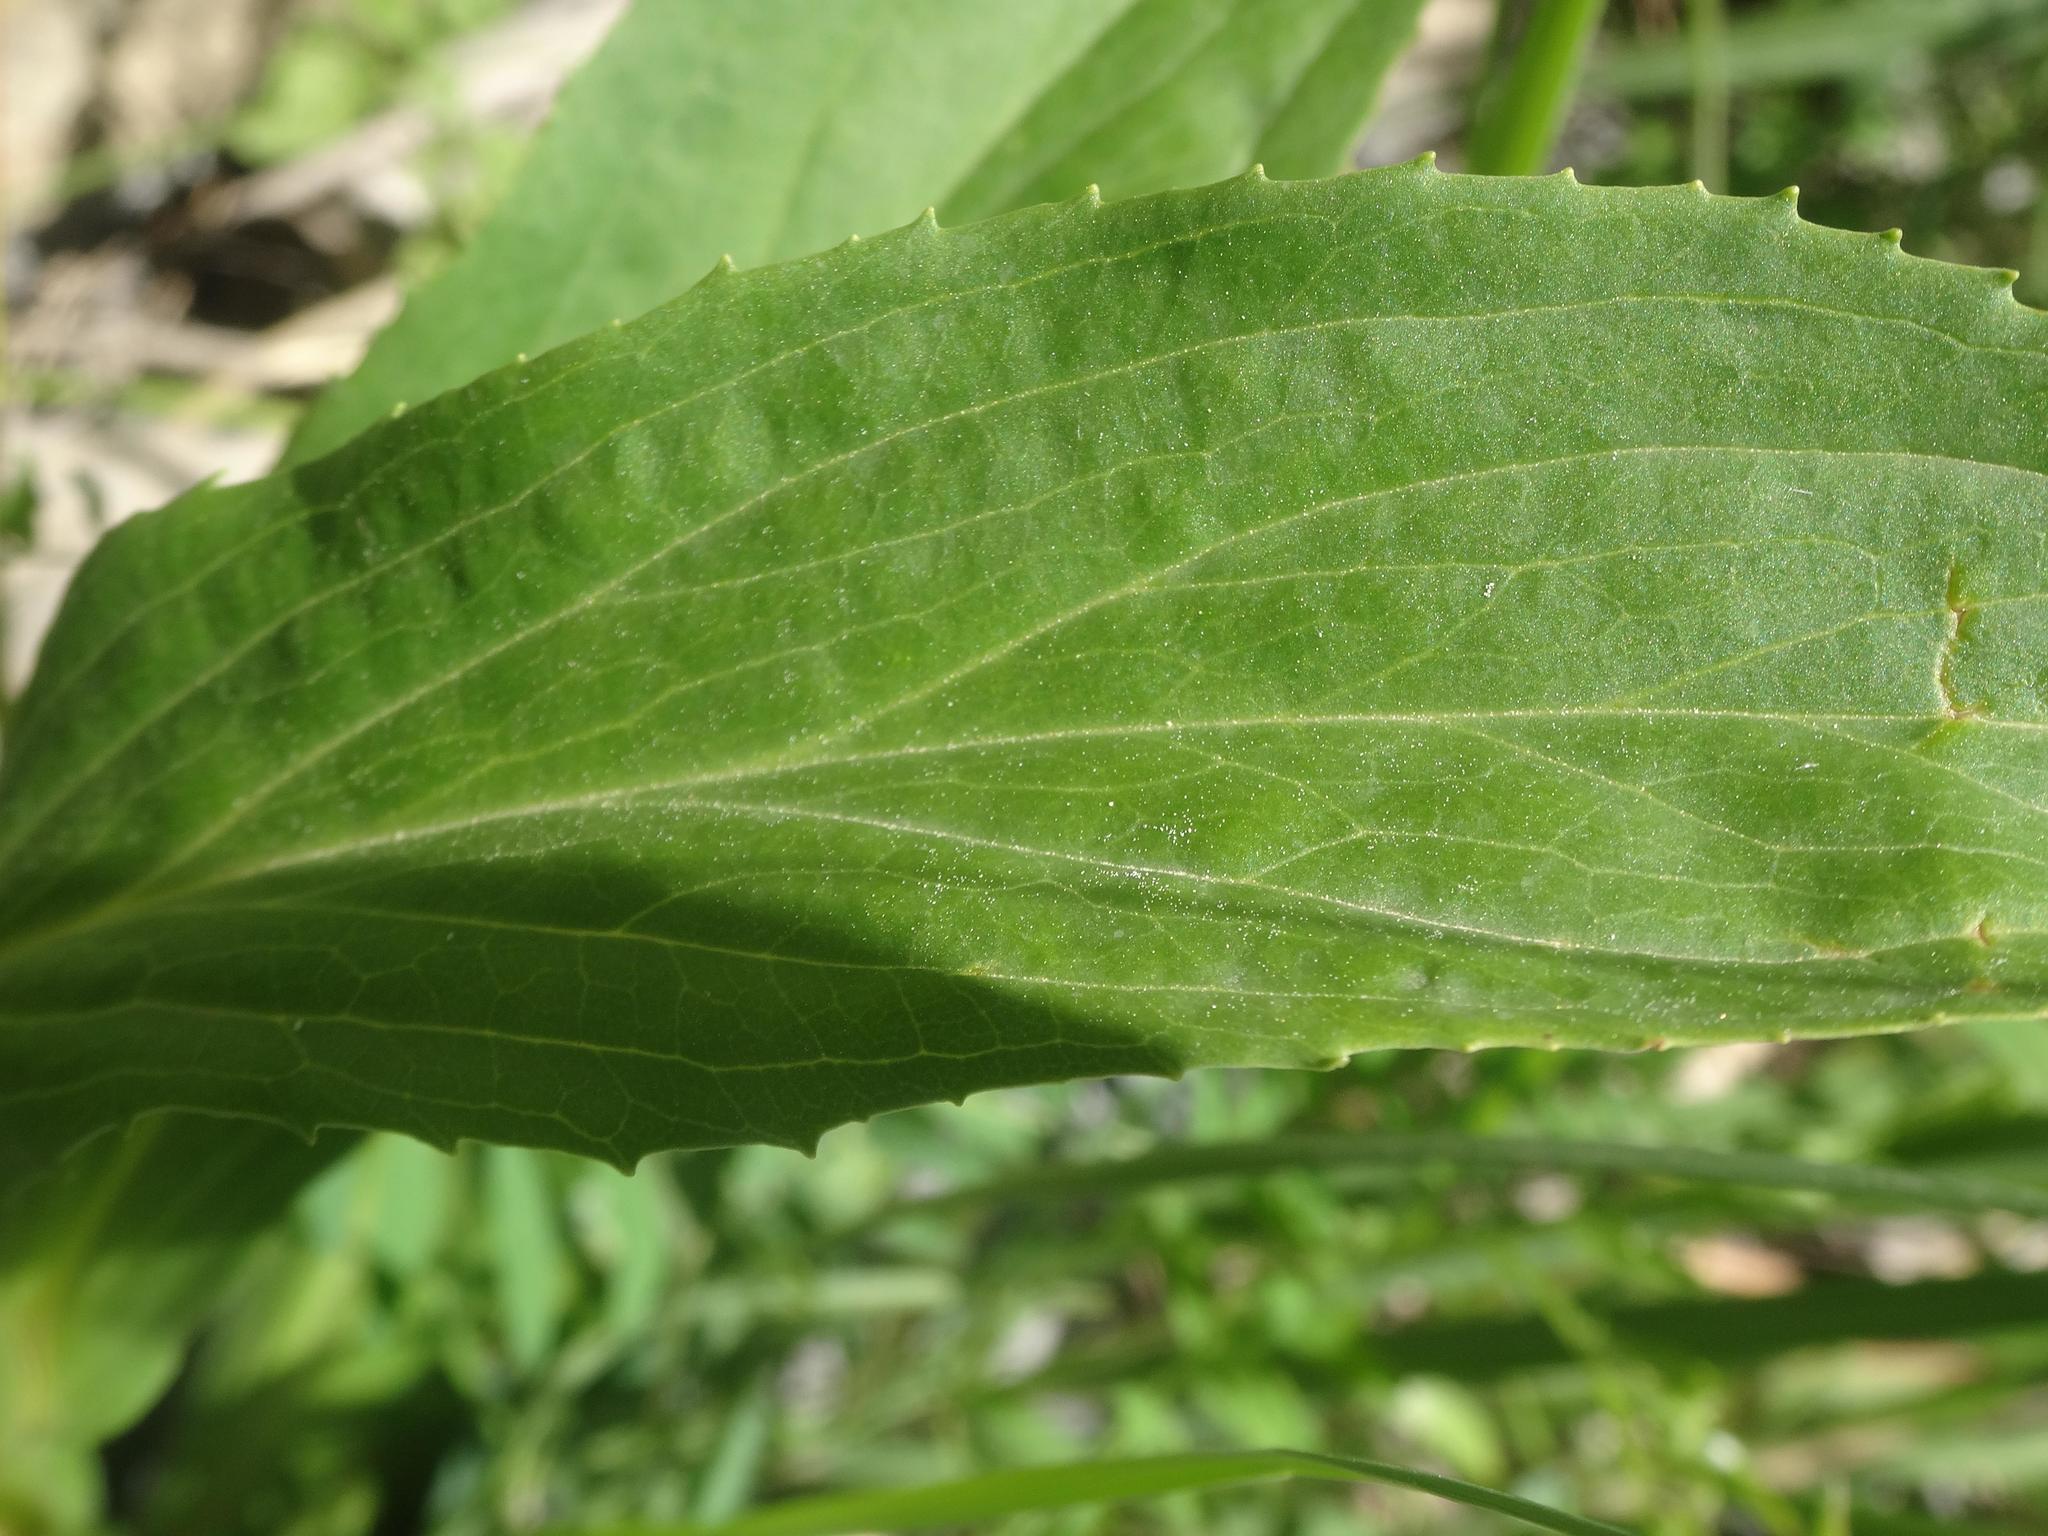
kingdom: Plantae
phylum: Tracheophyta
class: Magnoliopsida
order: Lamiales
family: Plantaginaceae
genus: Digitalis
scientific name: Digitalis lutea
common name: Straw foxglove
